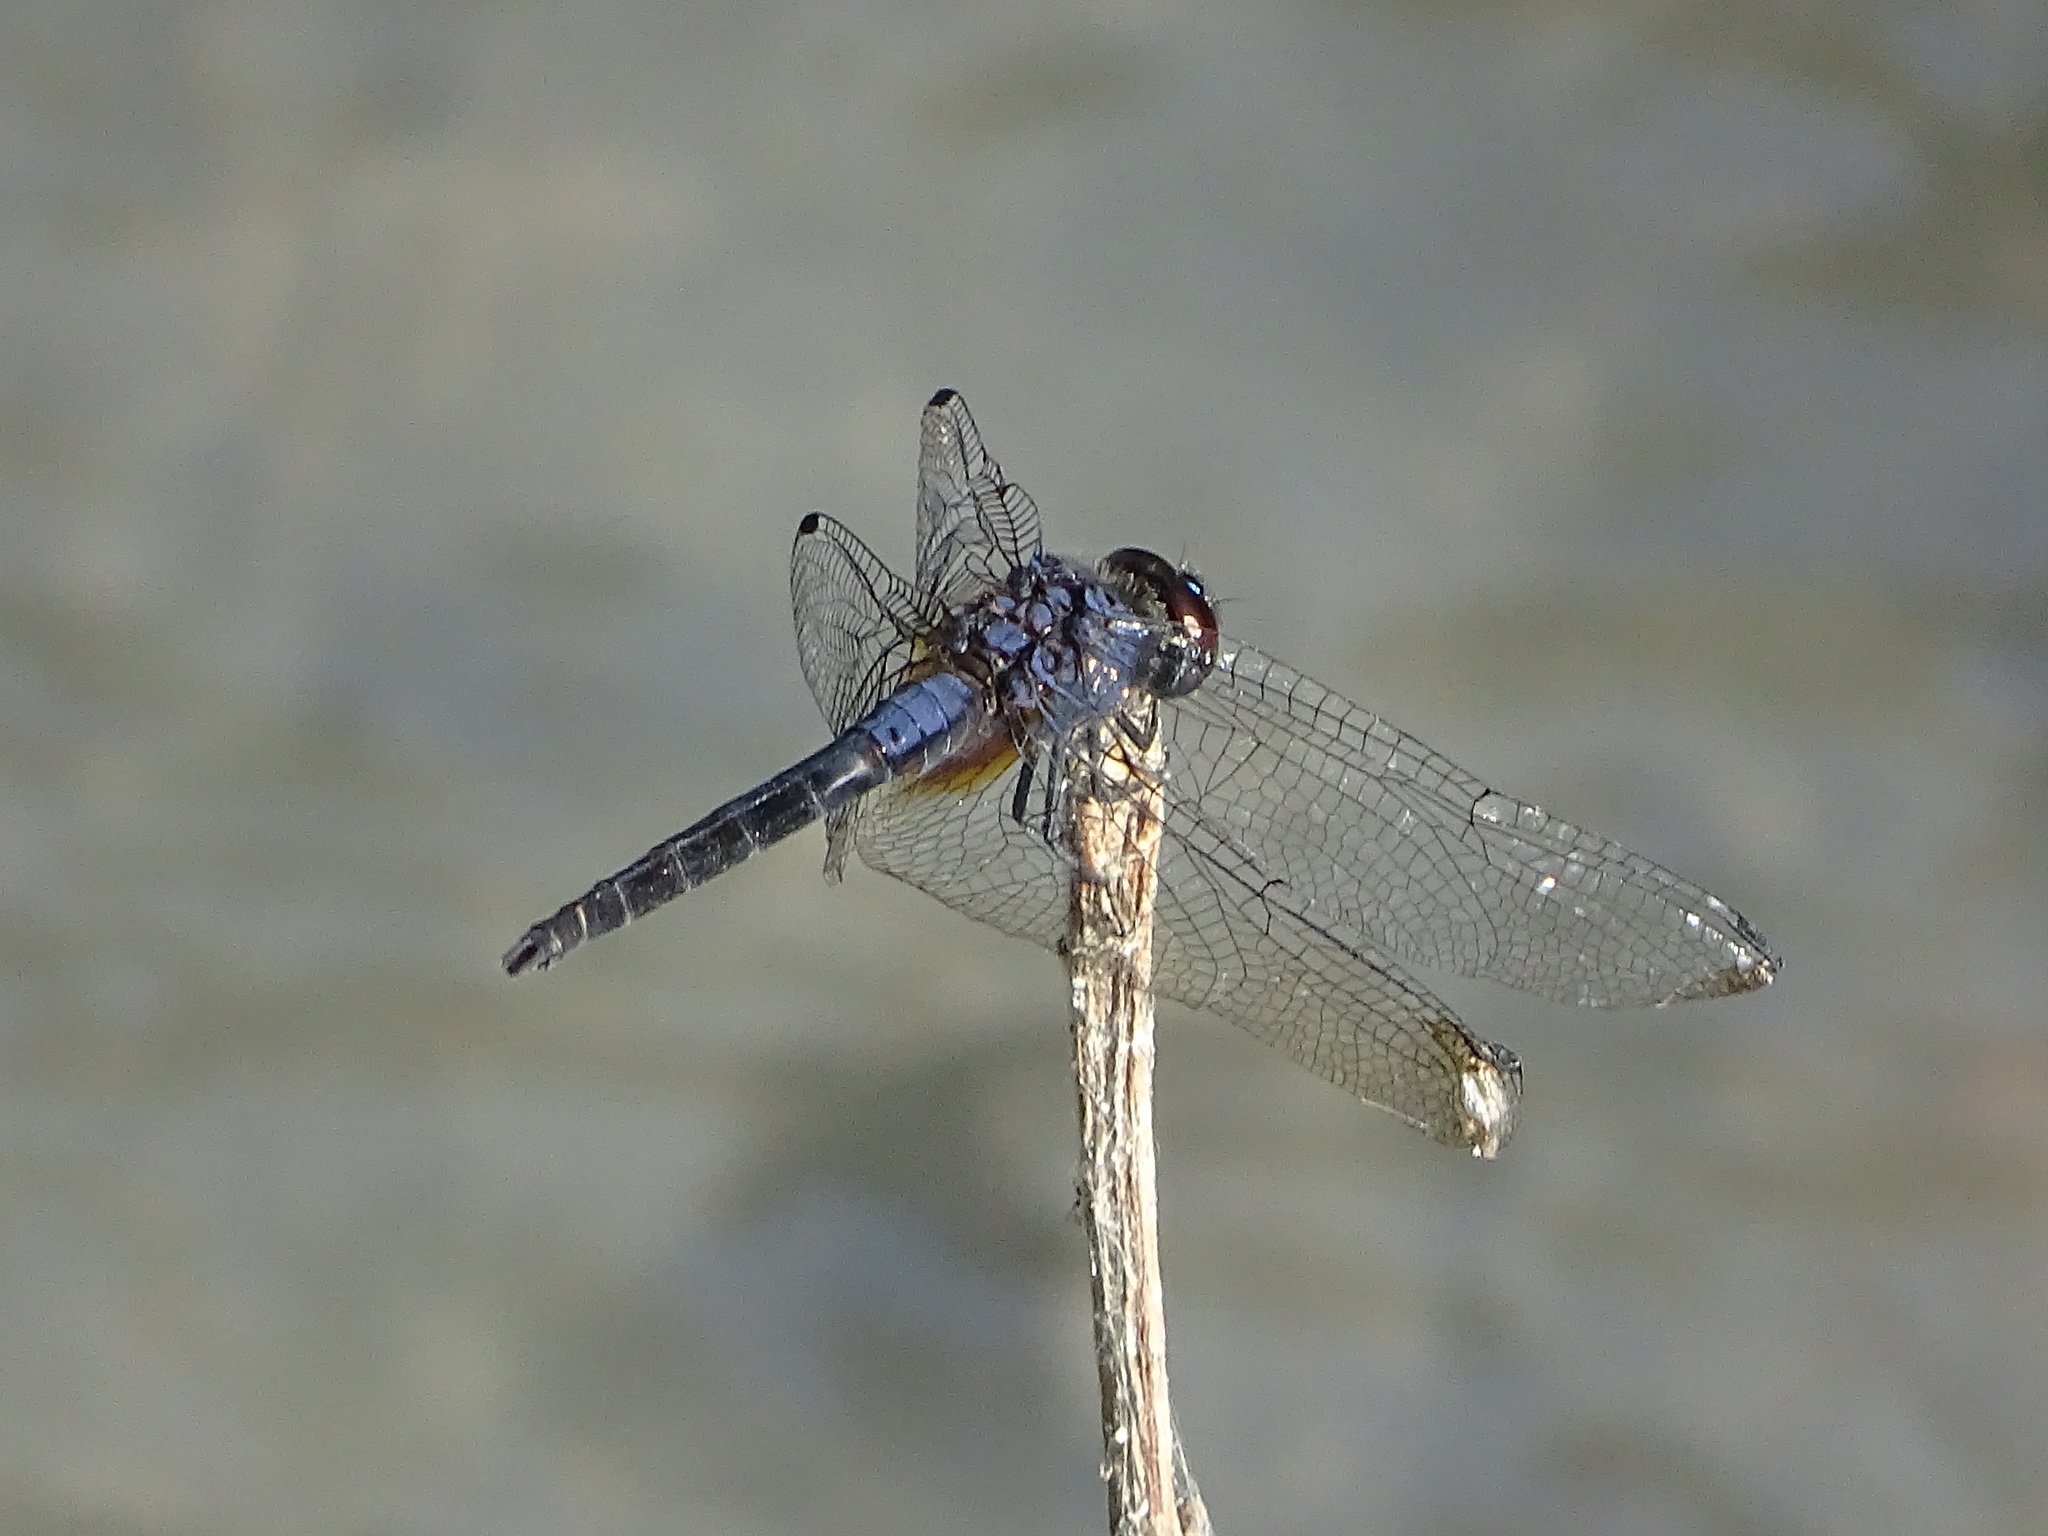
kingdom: Animalia
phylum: Arthropoda
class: Insecta
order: Odonata
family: Libellulidae
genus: Trithemis
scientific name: Trithemis festiva
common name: Indigo dropwing
